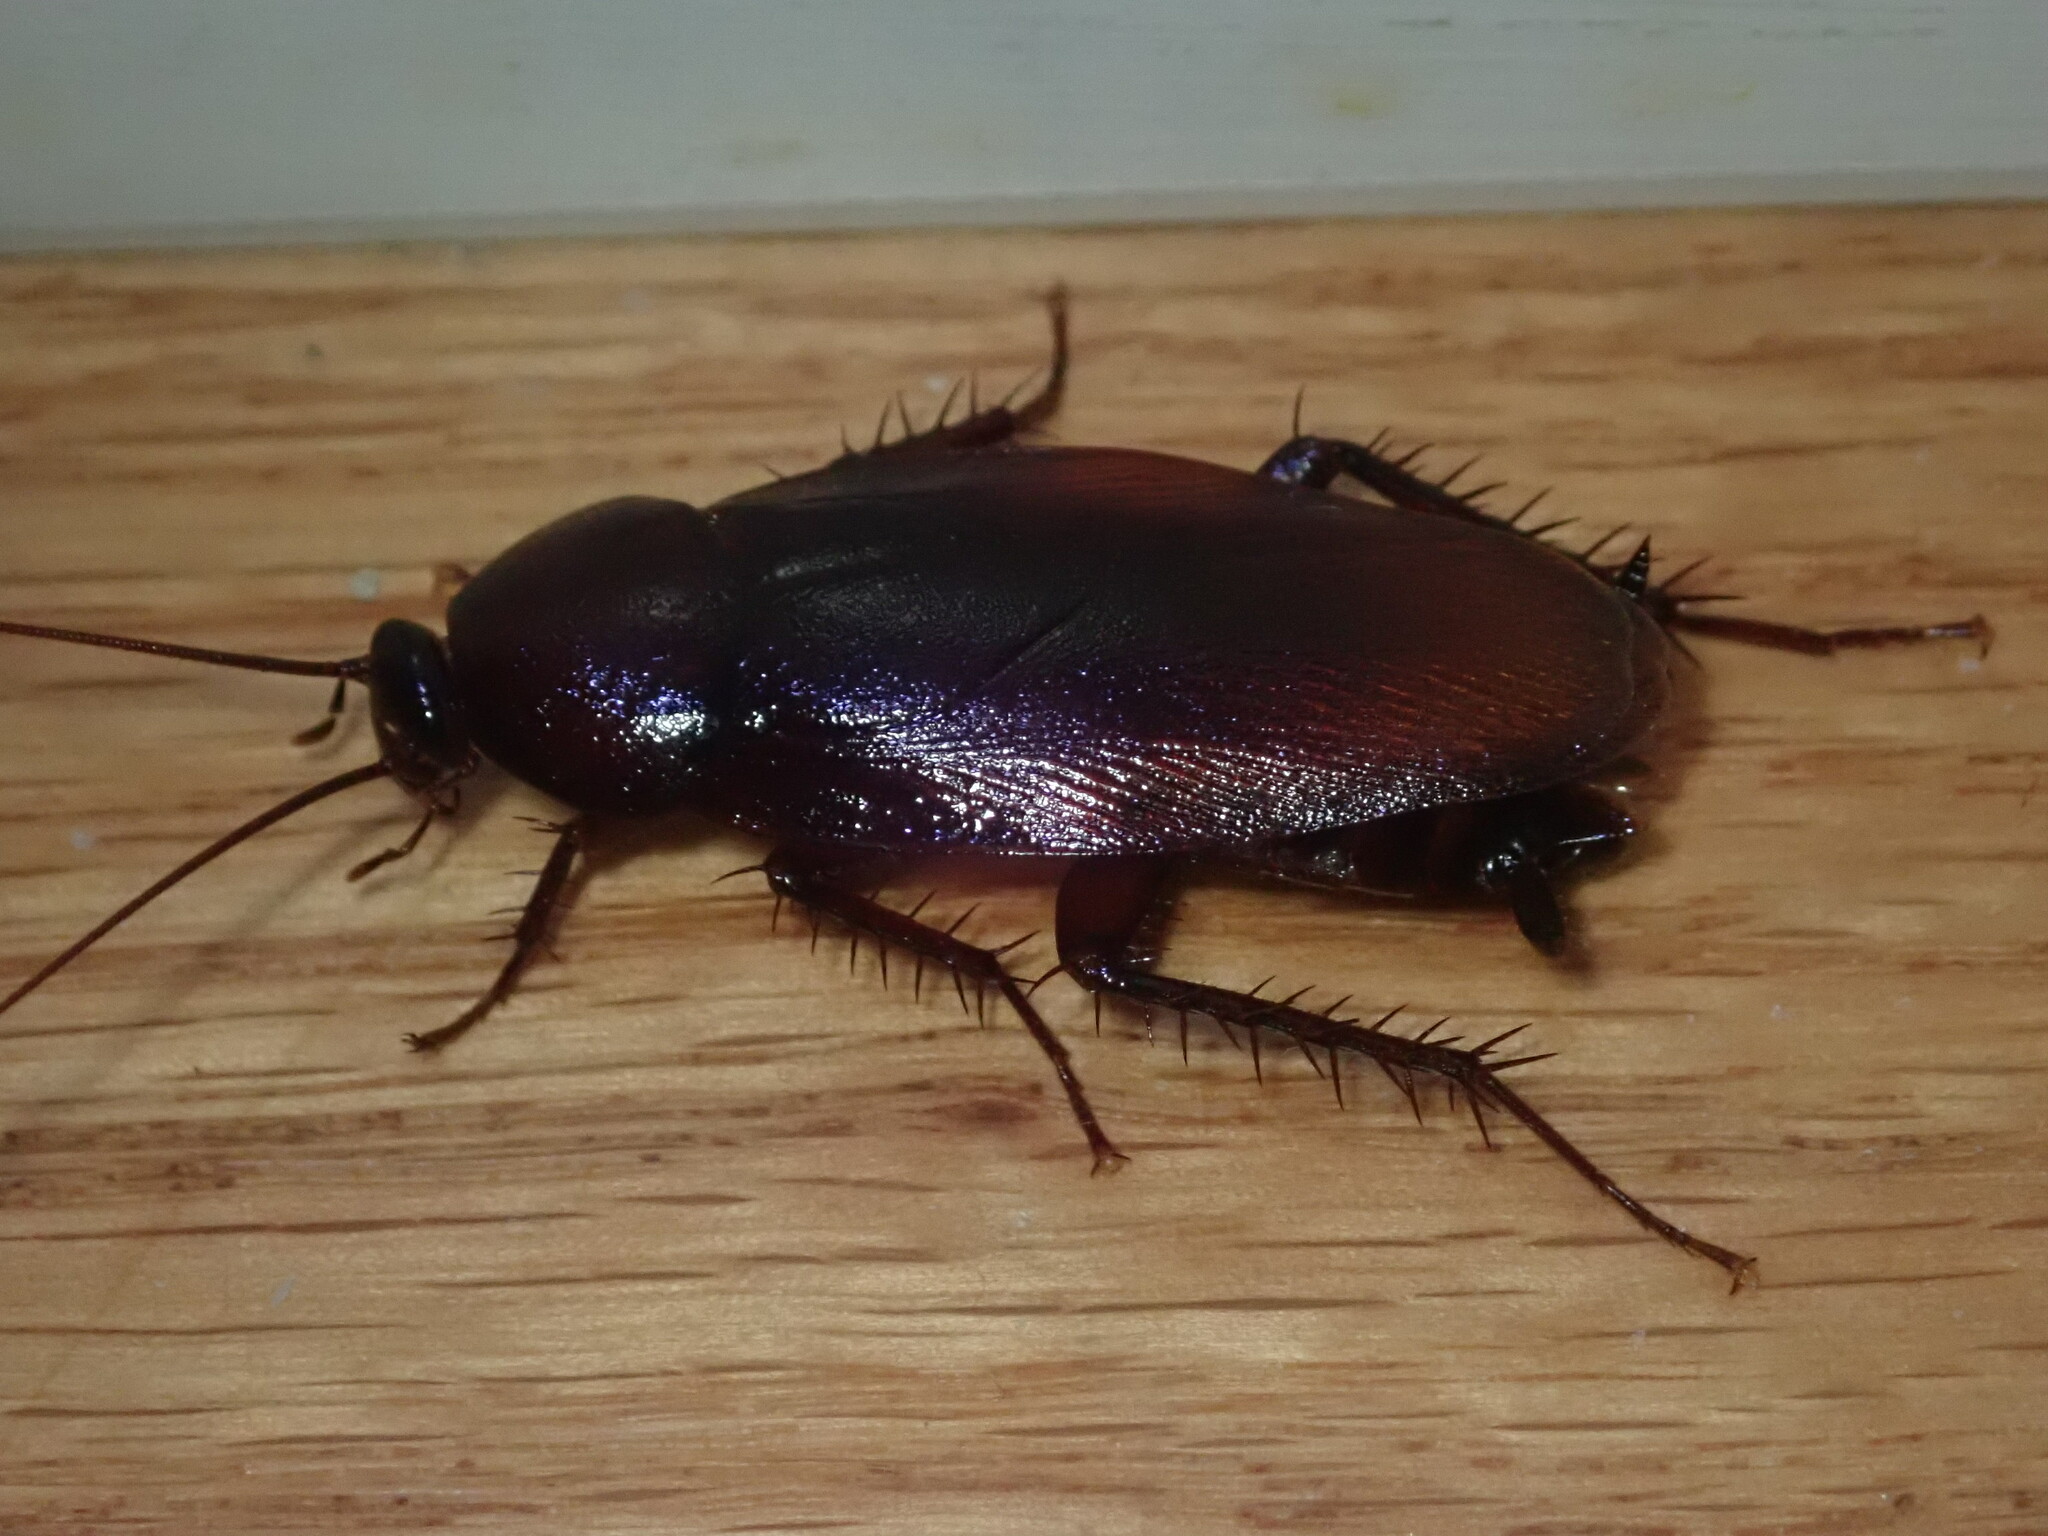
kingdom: Animalia
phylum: Arthropoda
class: Insecta
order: Blattodea
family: Blattidae
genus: Periplaneta
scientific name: Periplaneta fuliginosa
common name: Smokeybrown cockroad
